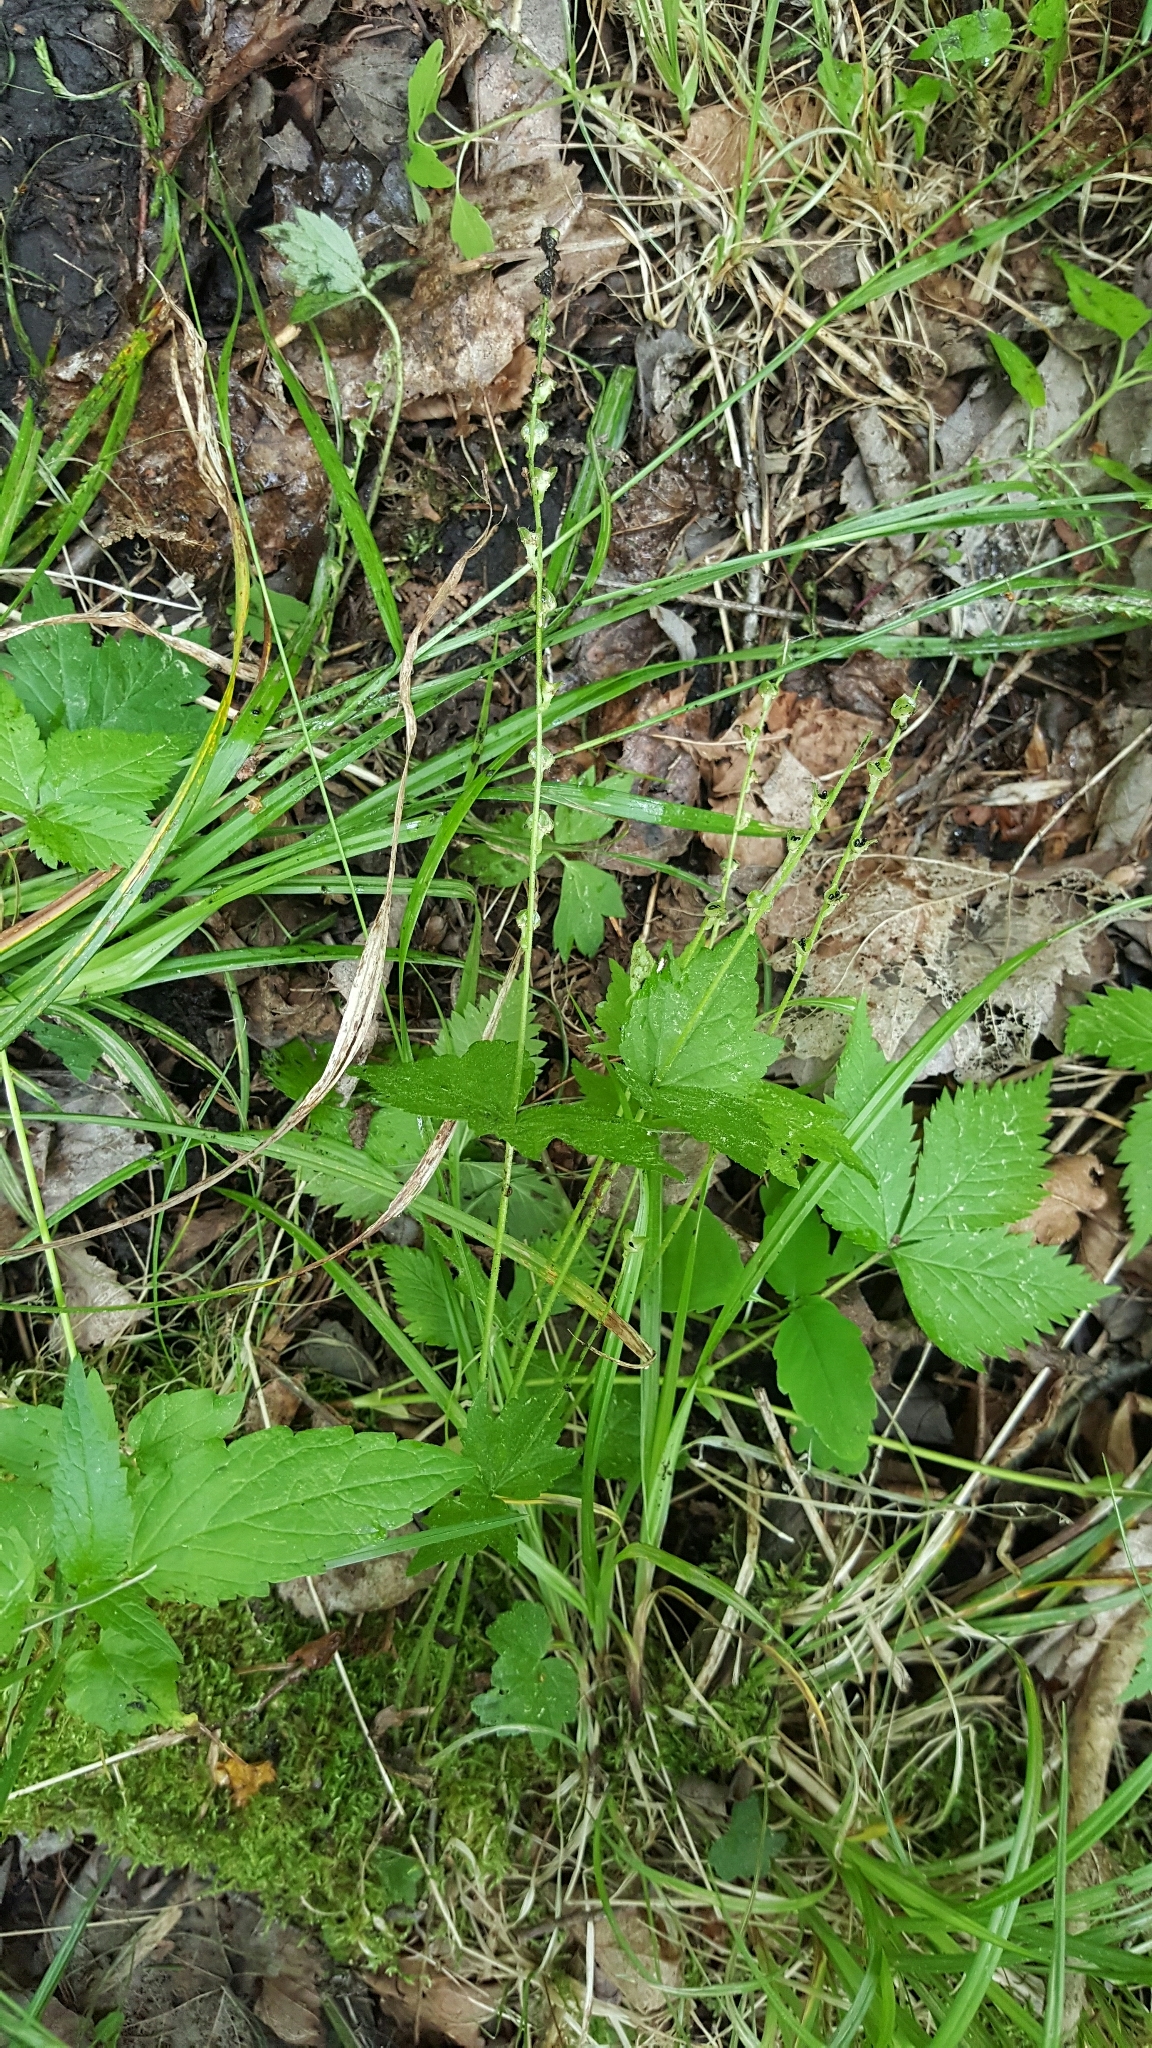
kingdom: Plantae
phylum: Tracheophyta
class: Magnoliopsida
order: Saxifragales
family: Saxifragaceae
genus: Mitella
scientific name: Mitella diphylla
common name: Coolwort
